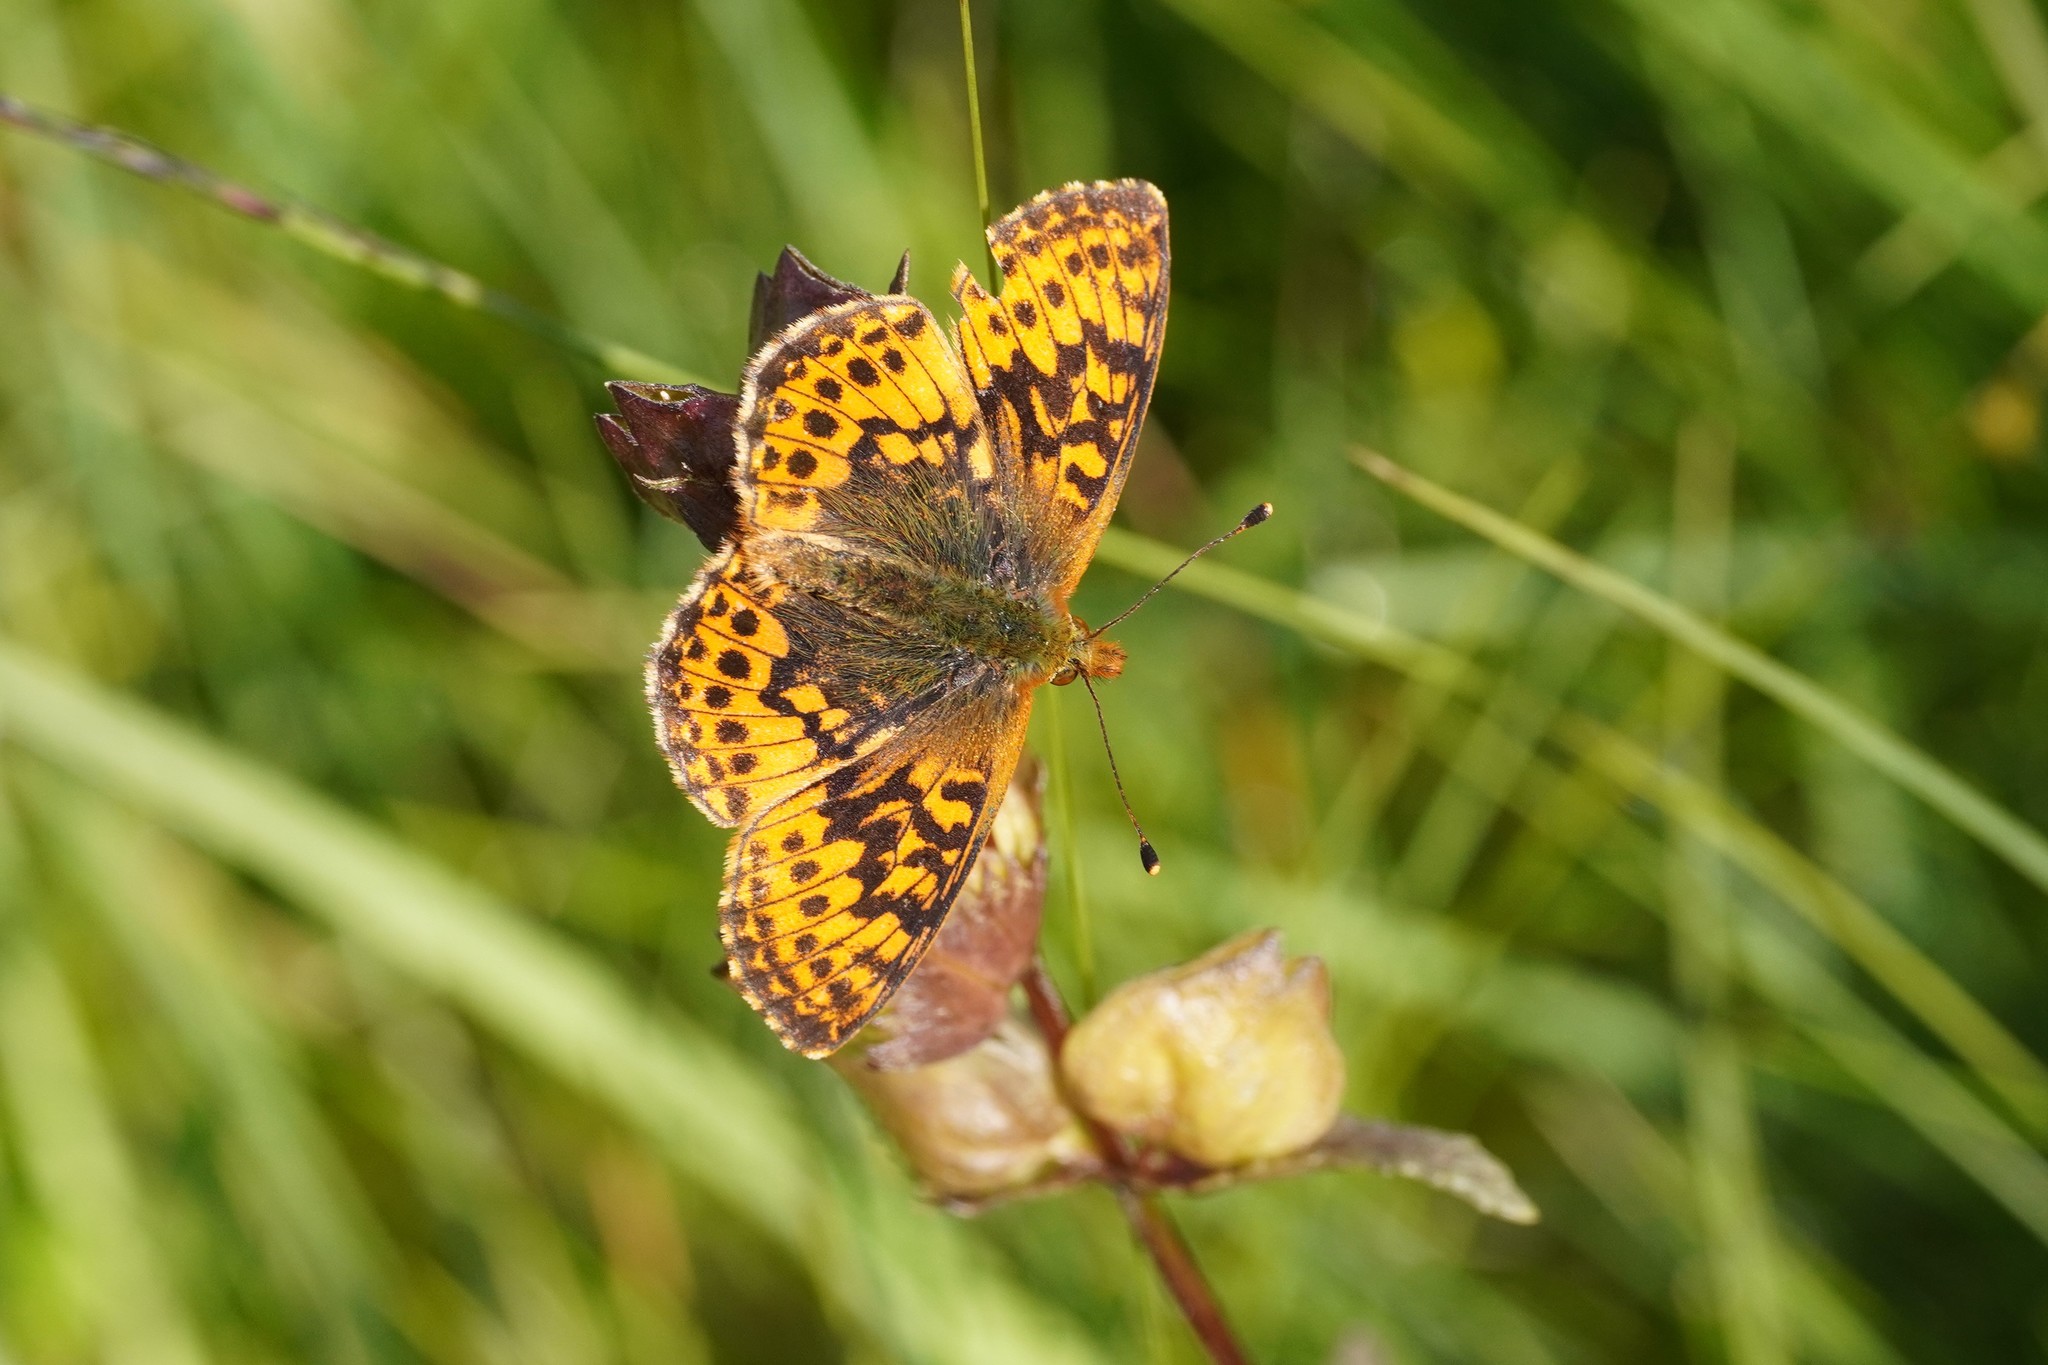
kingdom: Animalia
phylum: Arthropoda
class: Insecta
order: Lepidoptera
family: Nymphalidae
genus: Boloria
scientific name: Boloria aquilonaris
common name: Cranberry fritillary
